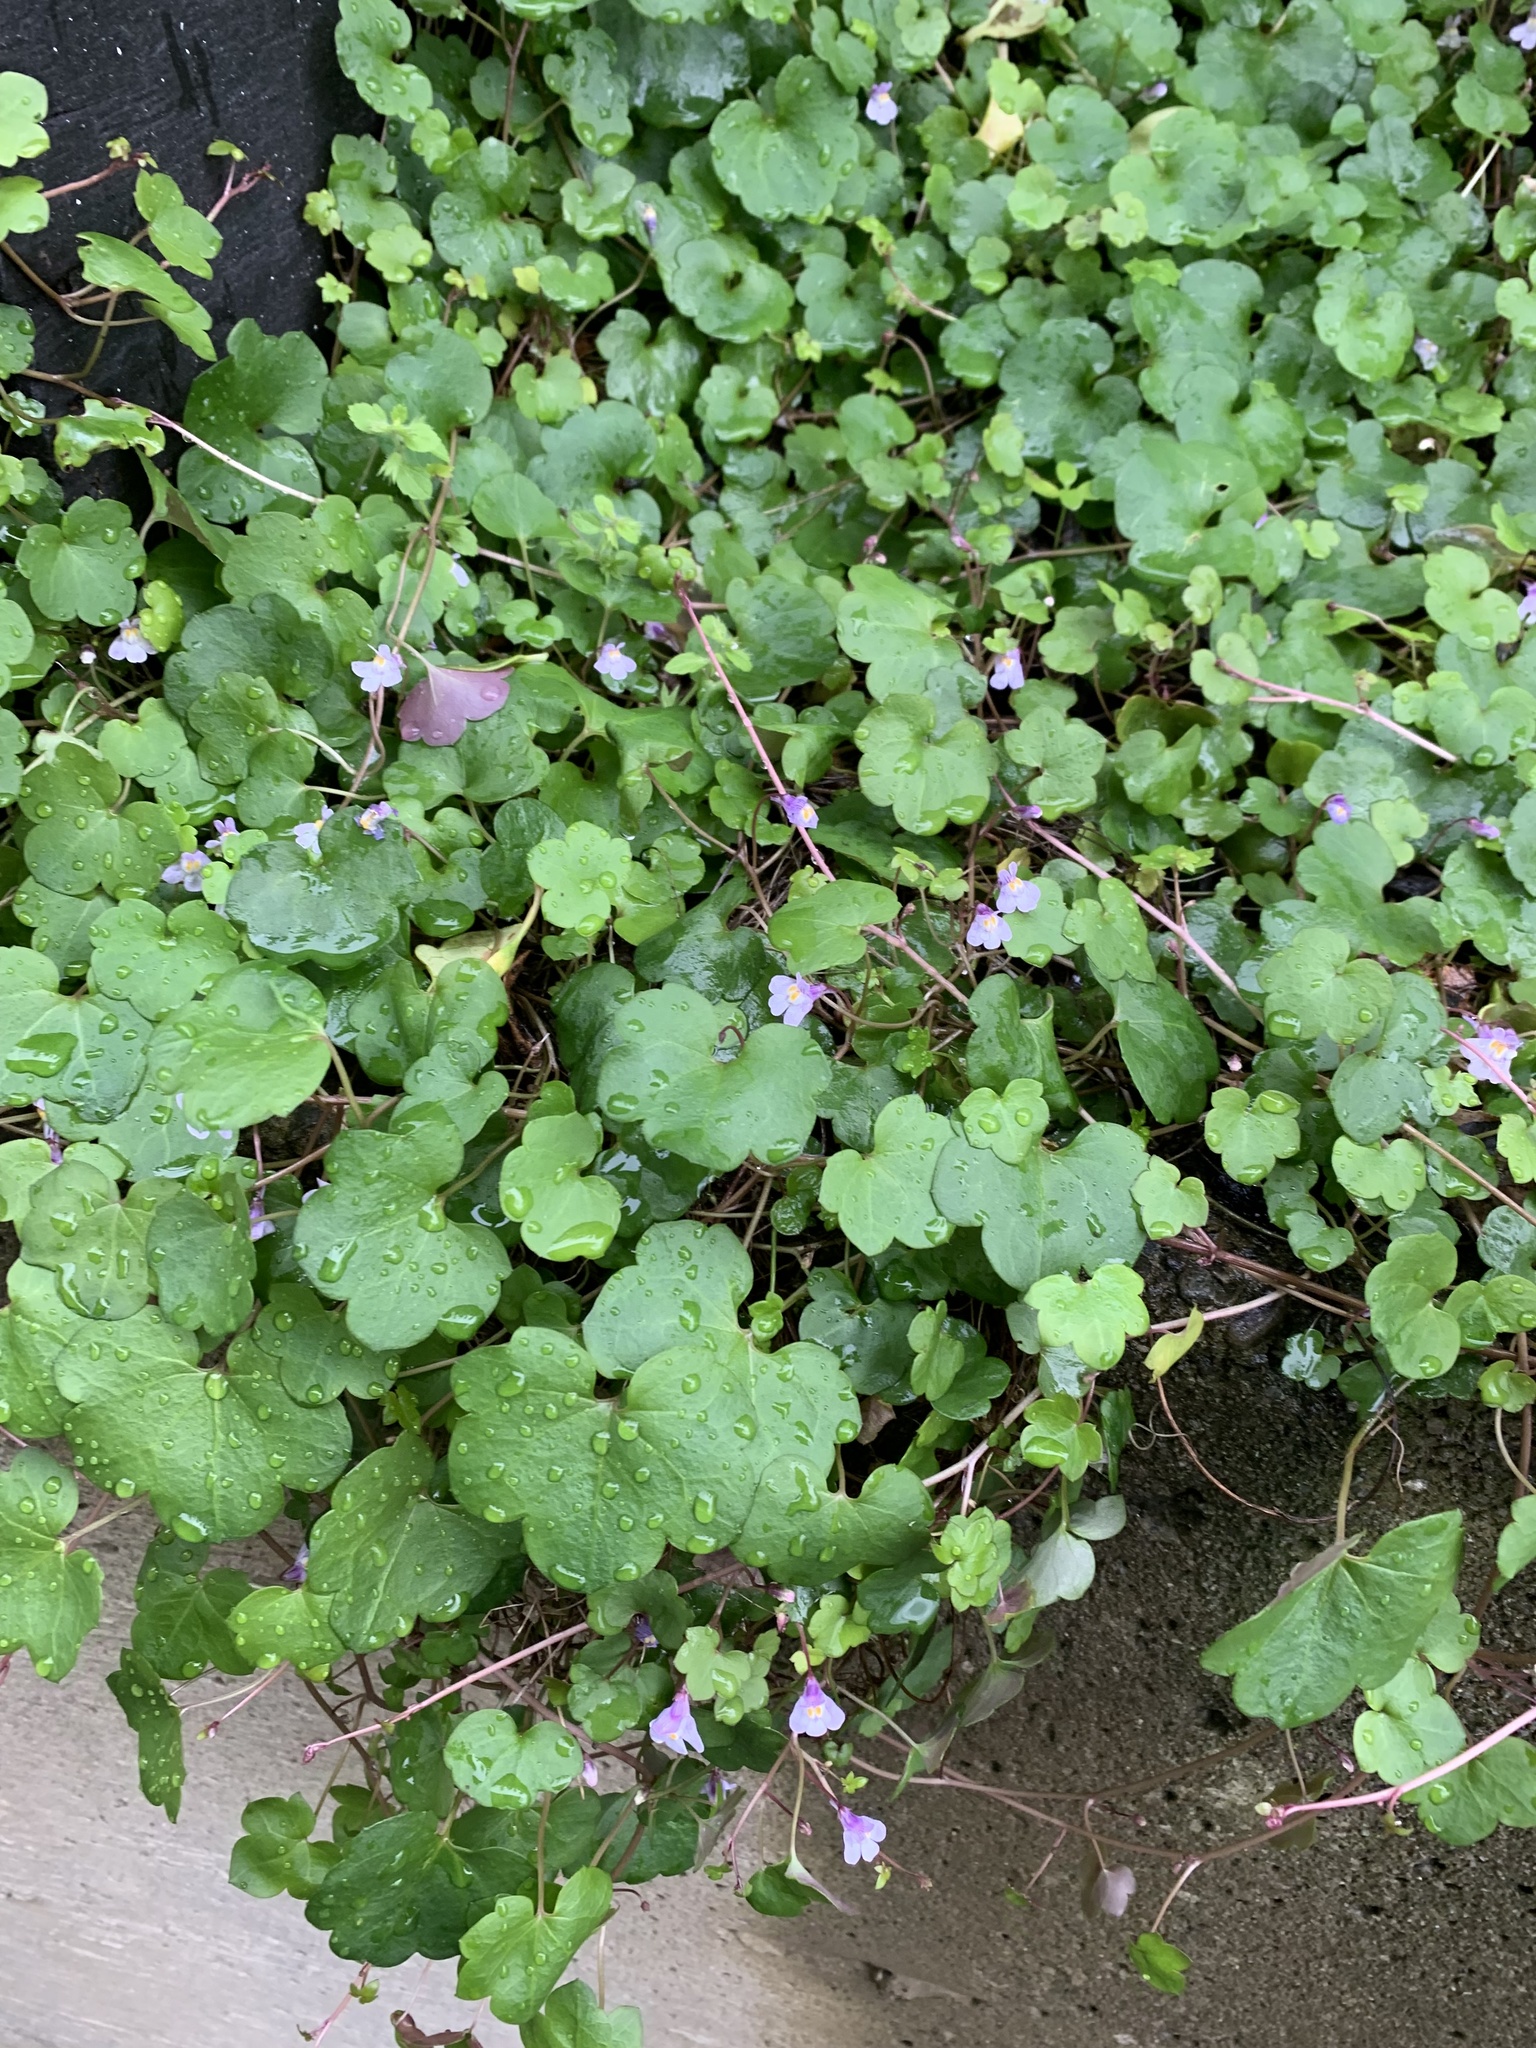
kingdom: Plantae
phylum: Tracheophyta
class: Magnoliopsida
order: Lamiales
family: Plantaginaceae
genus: Cymbalaria
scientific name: Cymbalaria muralis
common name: Ivy-leaved toadflax
